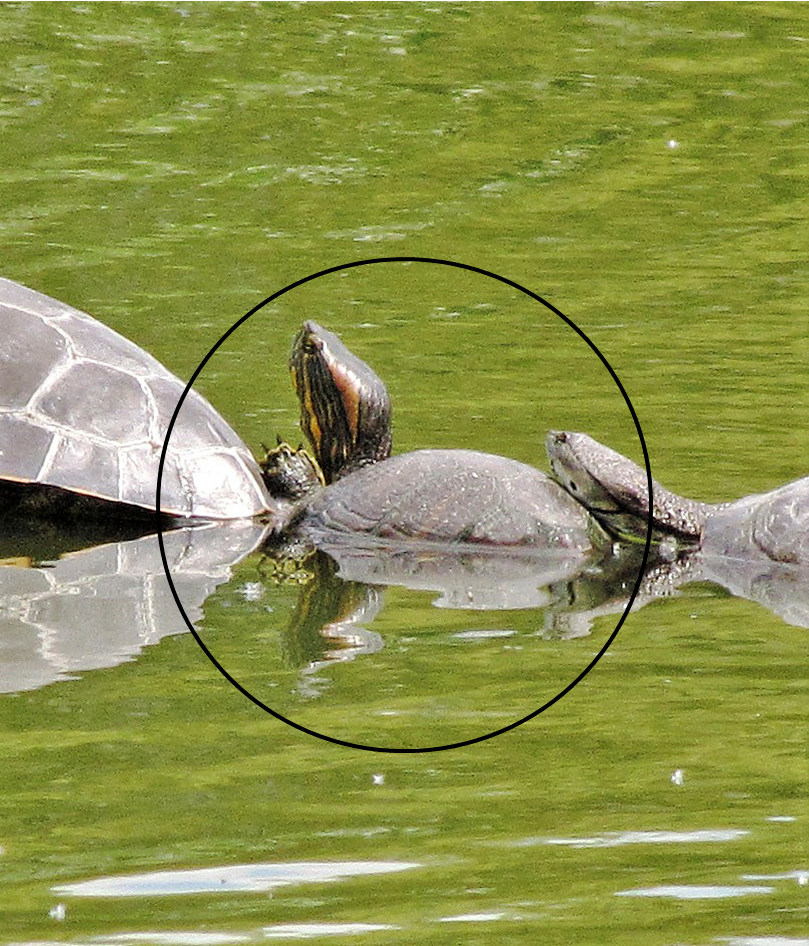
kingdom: Animalia
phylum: Chordata
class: Testudines
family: Emydidae
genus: Trachemys
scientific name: Trachemys dorbigni
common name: Black-bellied slider
